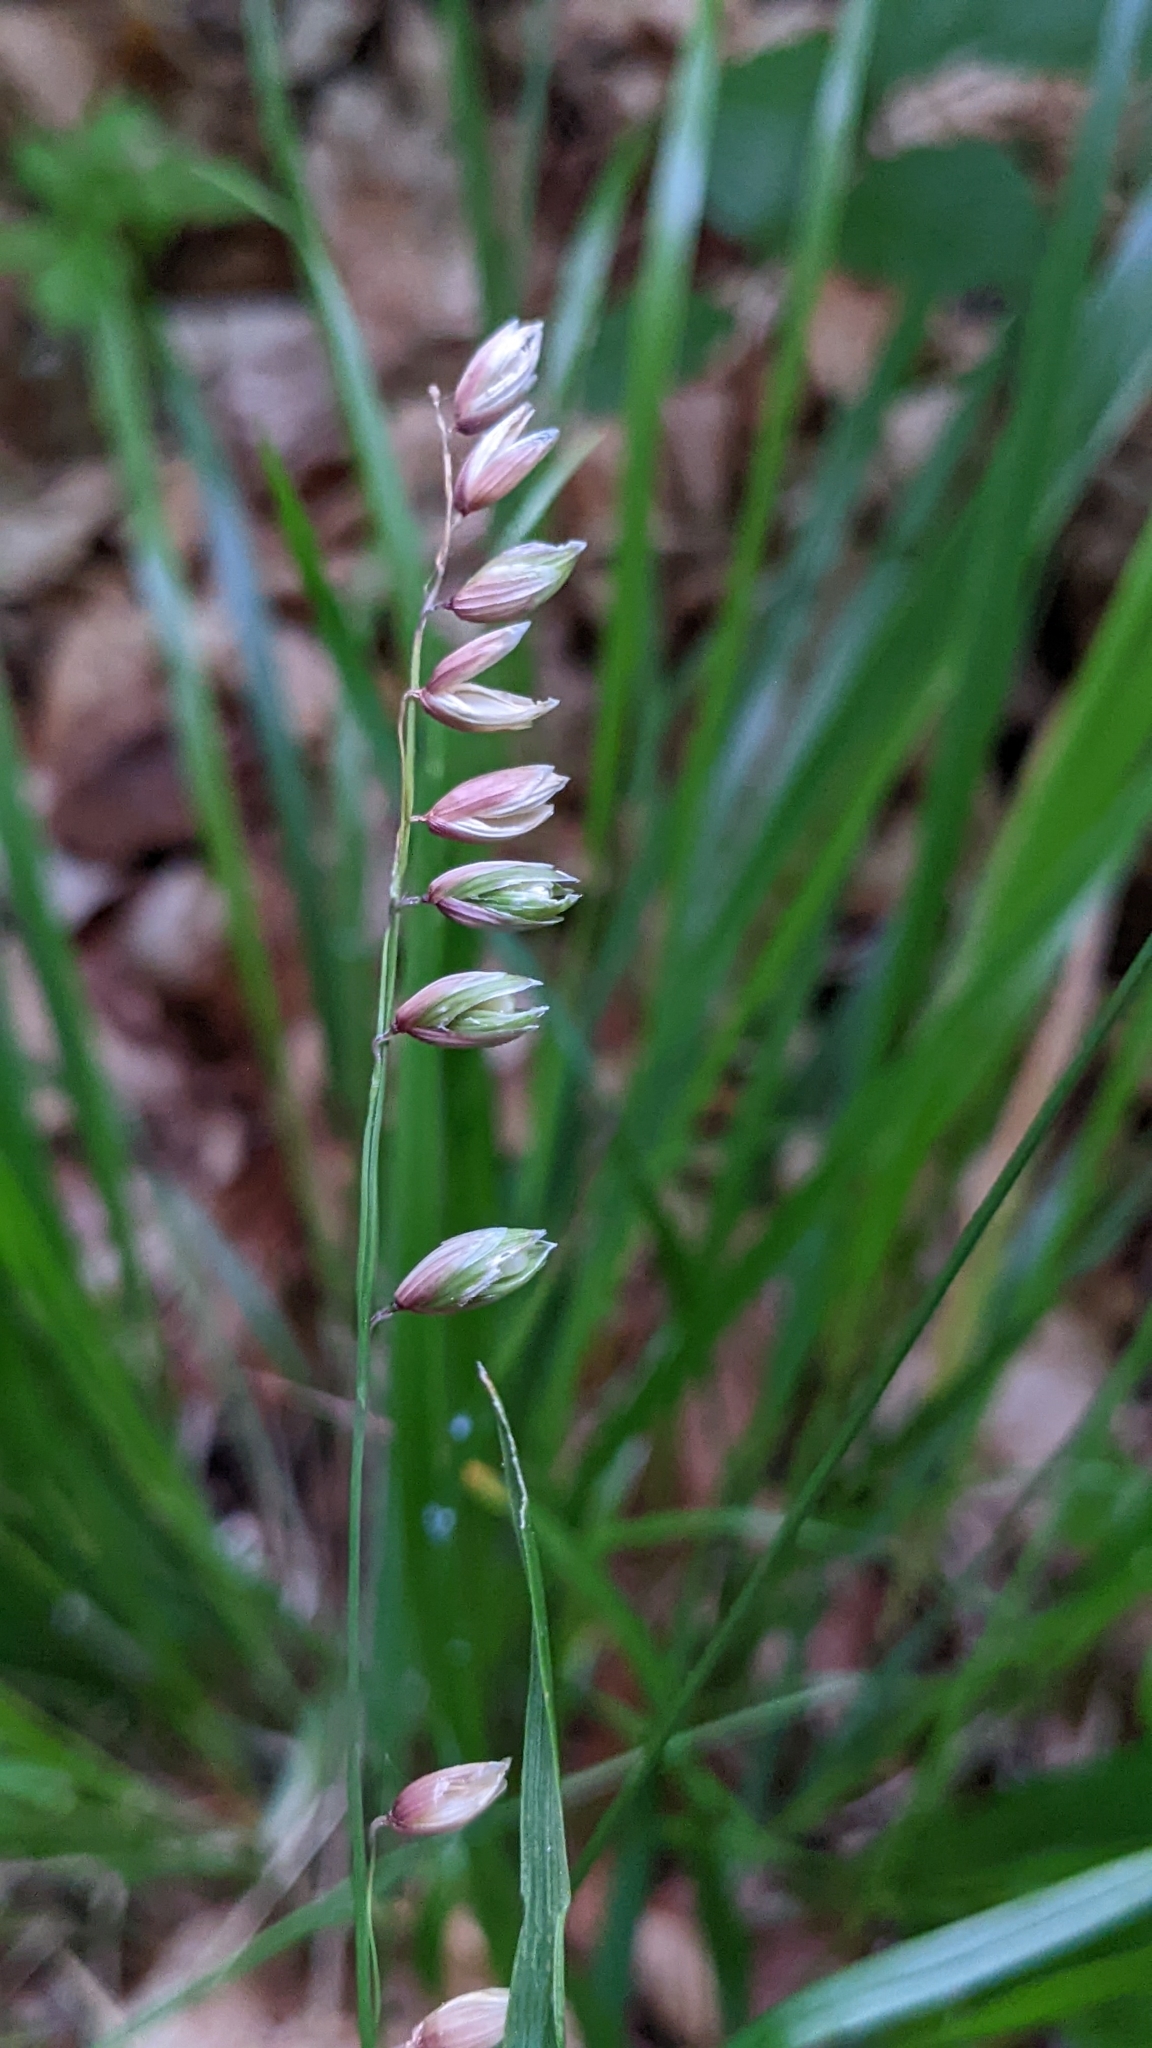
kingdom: Plantae
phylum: Tracheophyta
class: Liliopsida
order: Poales
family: Poaceae
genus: Melica
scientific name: Melica nutans
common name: Mountain melick
